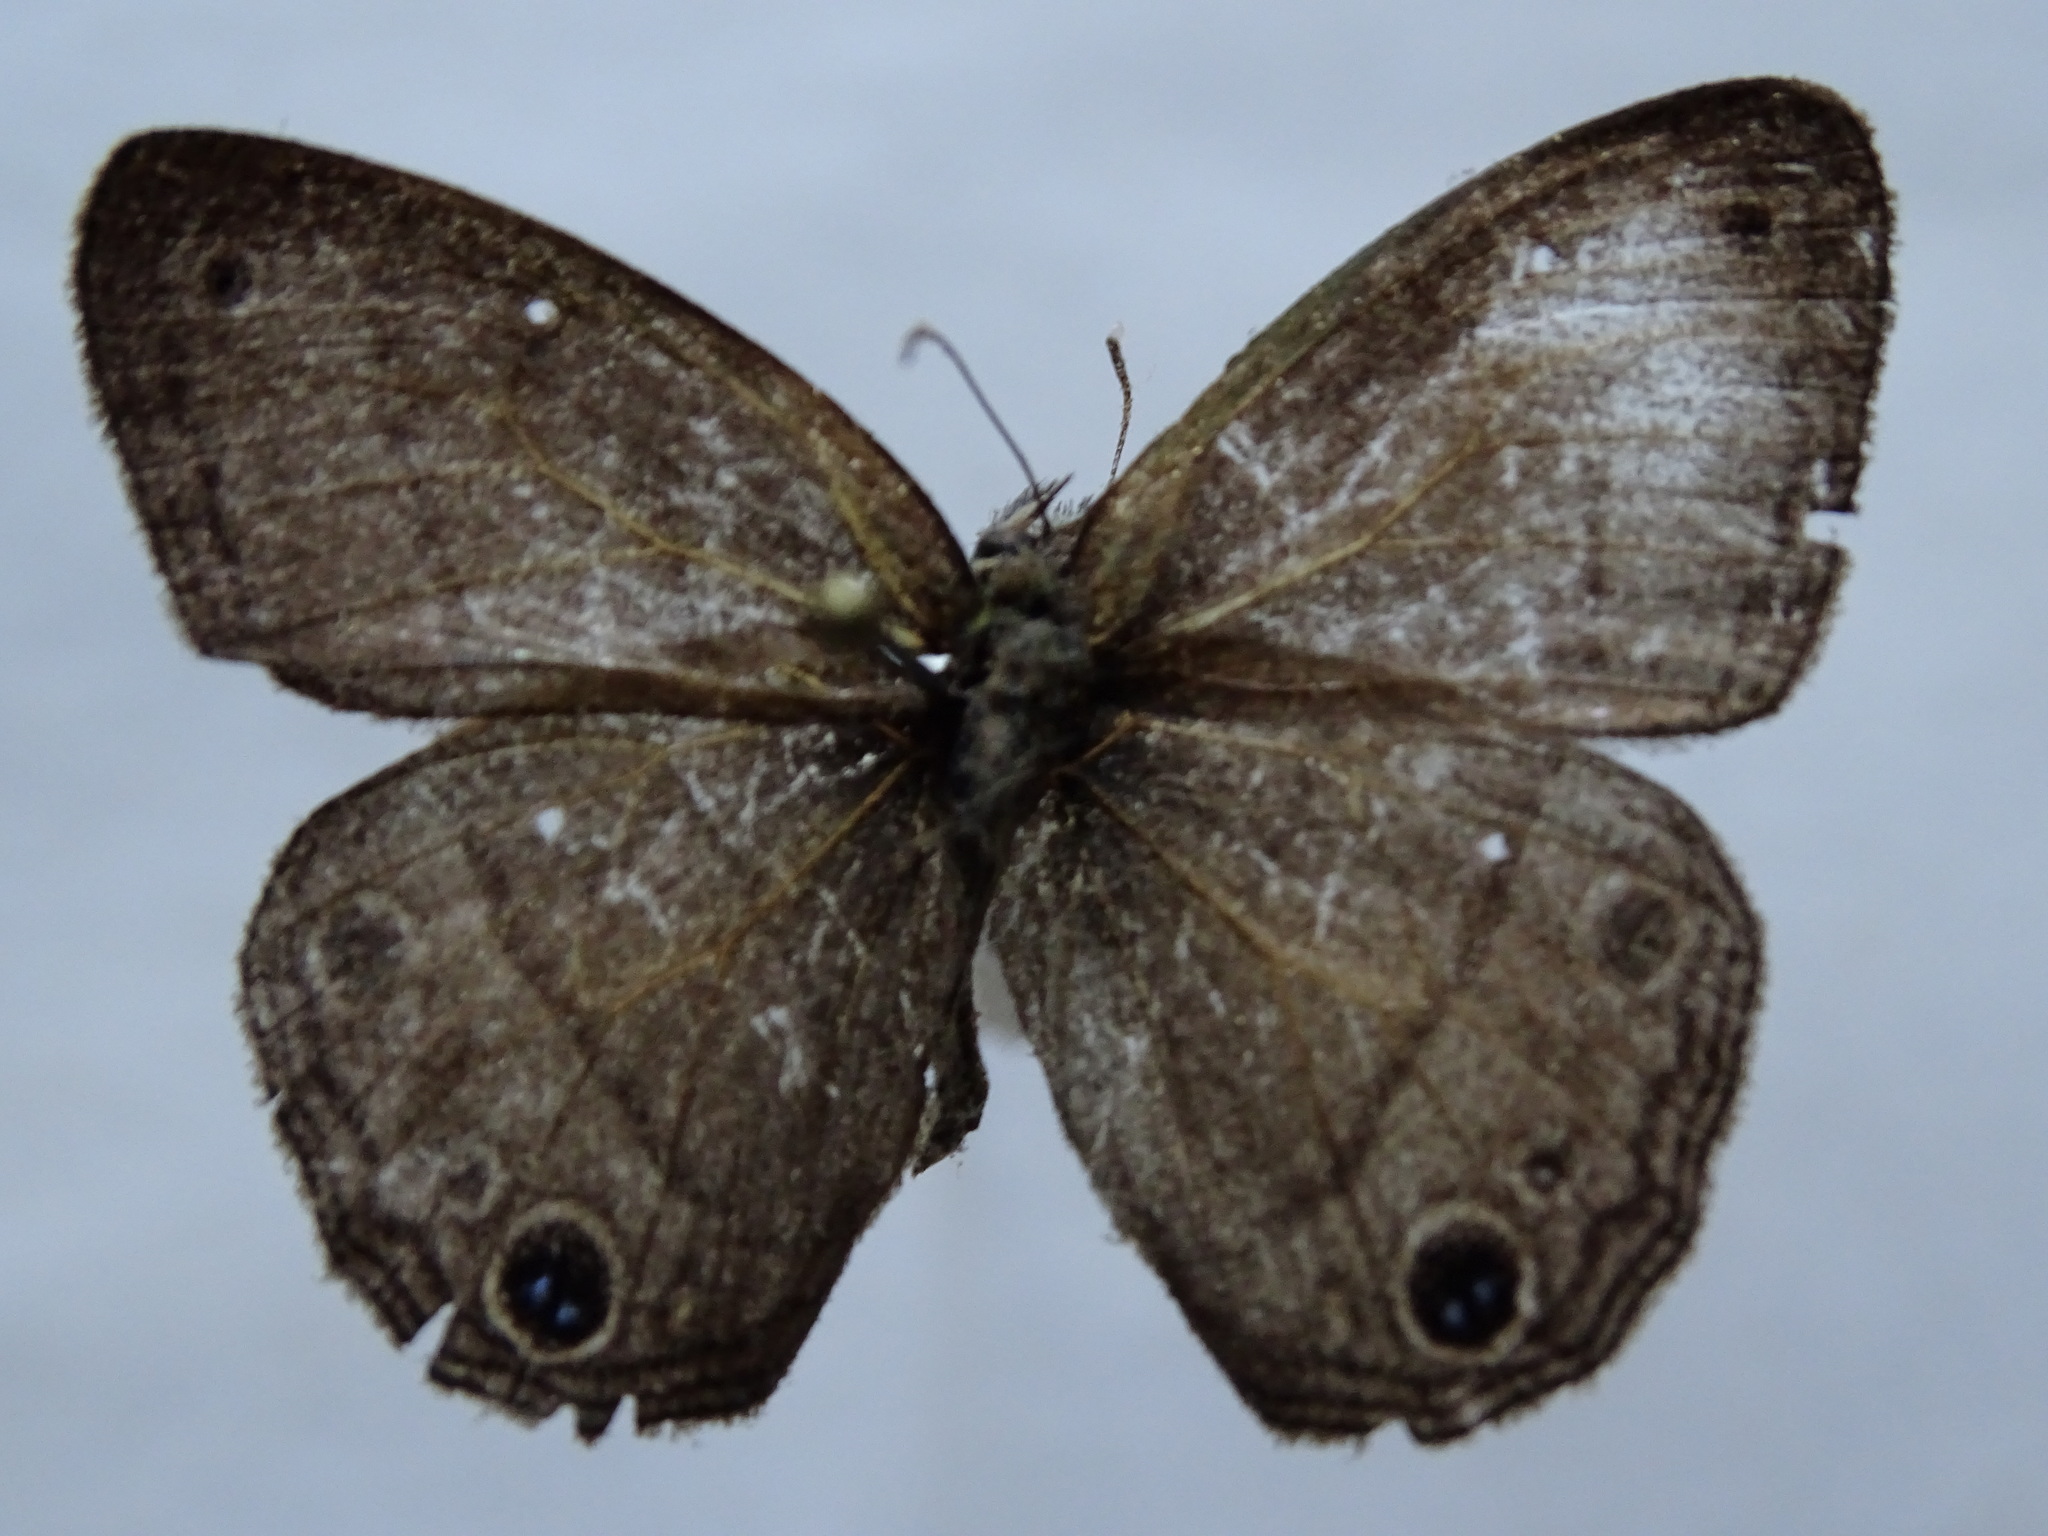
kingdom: Animalia
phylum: Arthropoda
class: Insecta
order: Lepidoptera
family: Nymphalidae
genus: Euptychia
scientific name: Euptychia Cissia pompilia
